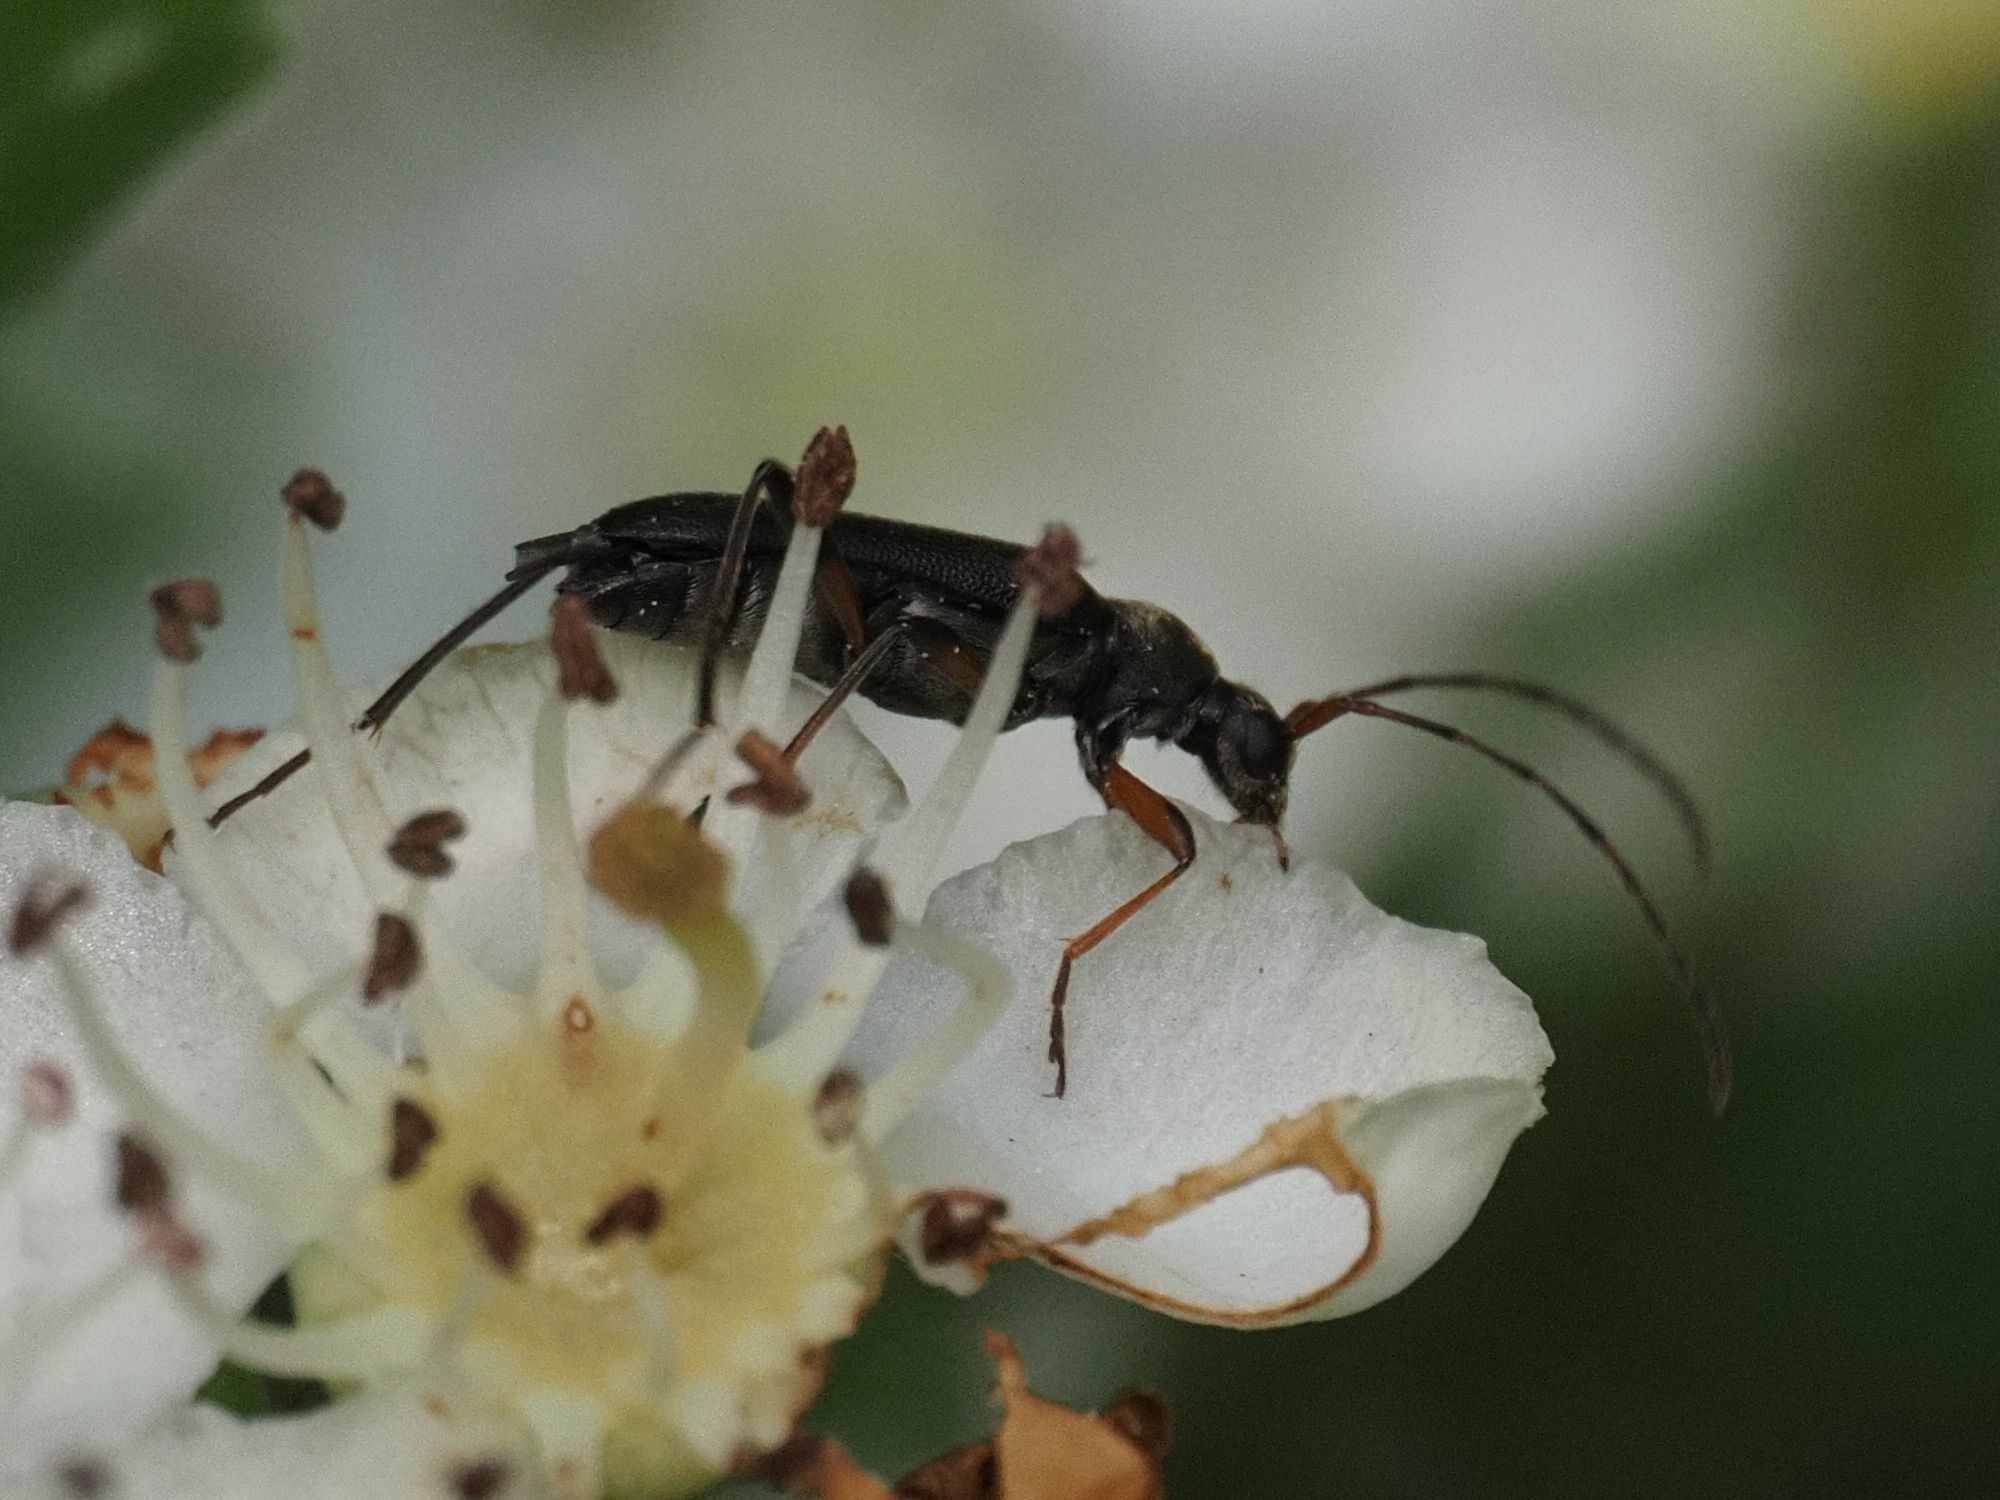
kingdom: Animalia
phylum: Arthropoda
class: Insecta
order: Coleoptera
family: Cerambycidae
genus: Grammoptera
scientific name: Grammoptera ruficornis
